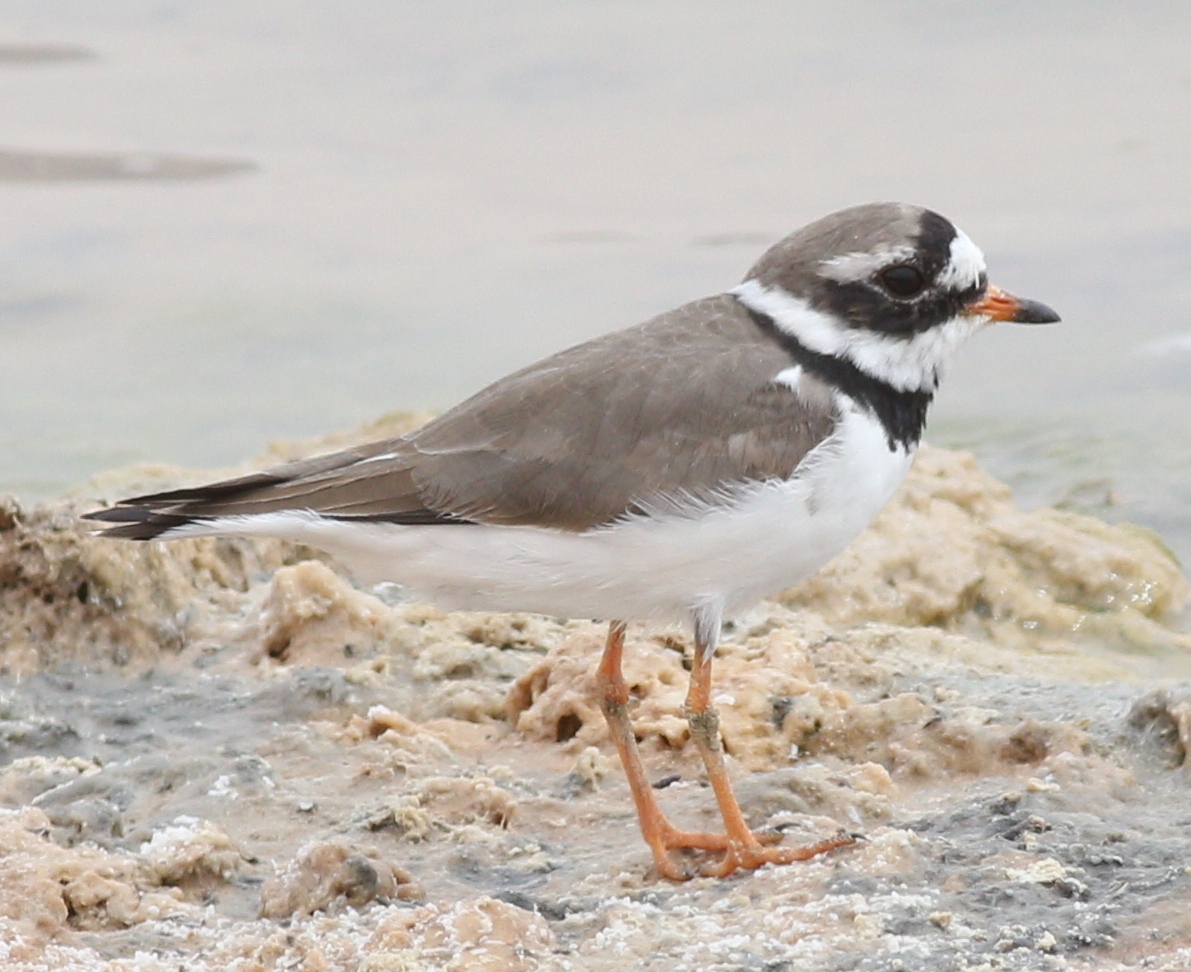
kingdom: Animalia
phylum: Chordata
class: Aves
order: Charadriiformes
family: Charadriidae
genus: Charadrius
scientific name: Charadrius hiaticula
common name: Common ringed plover
